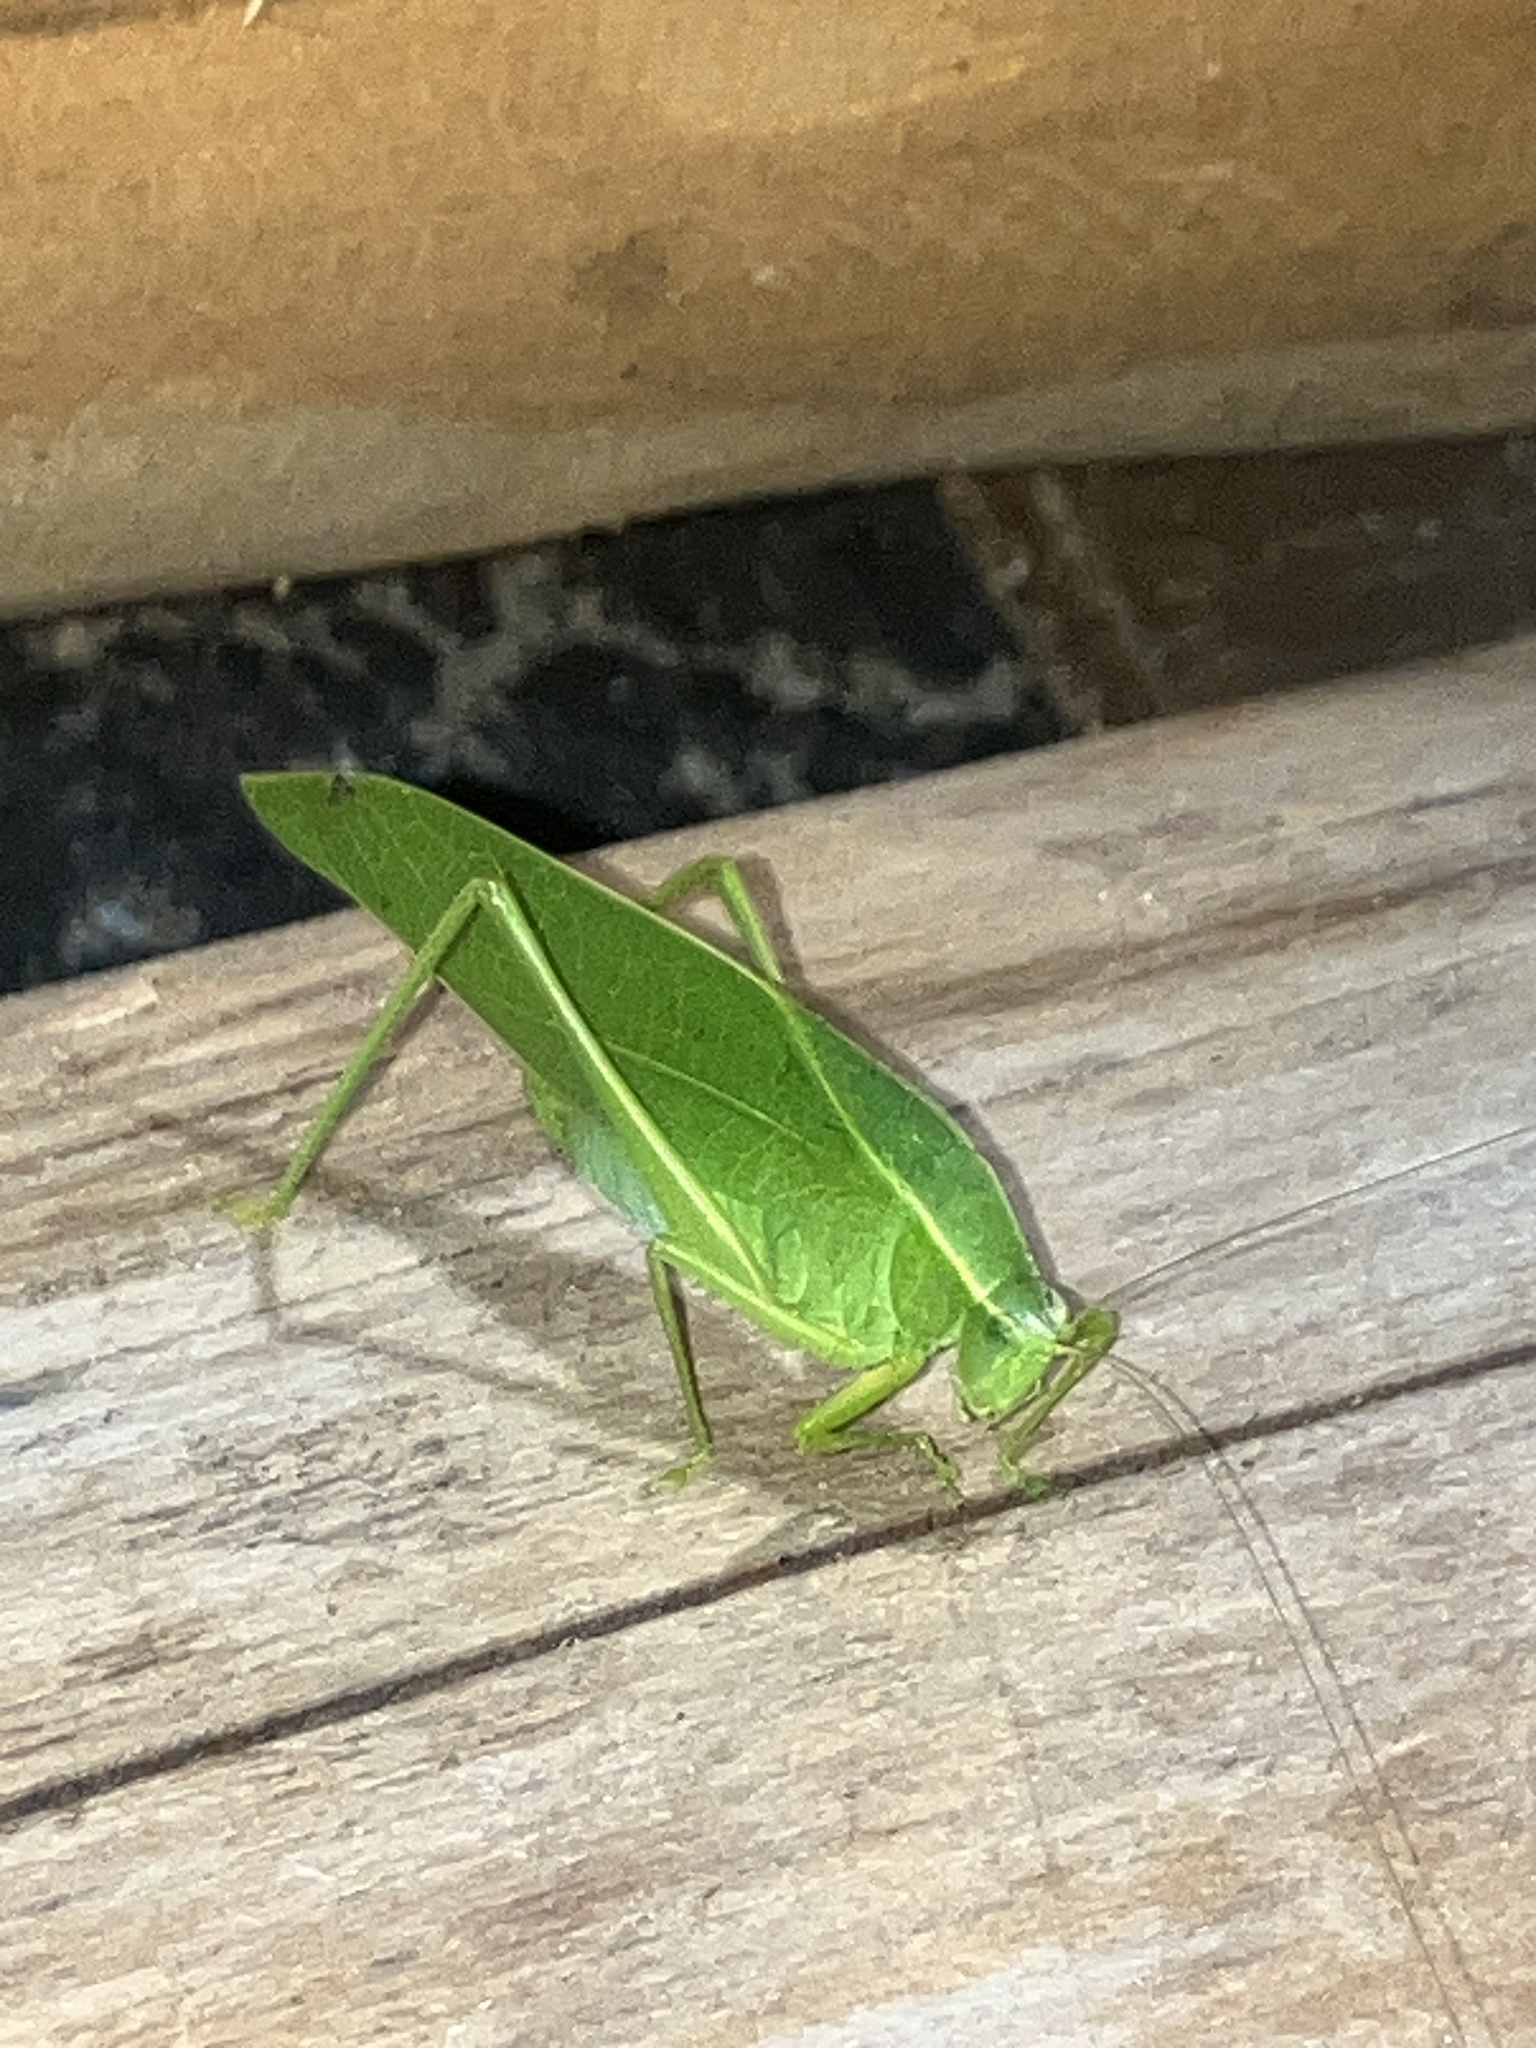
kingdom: Animalia
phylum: Arthropoda
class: Insecta
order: Orthoptera
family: Tettigoniidae
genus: Turpilia
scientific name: Turpilia rostrata
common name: Narrow-beaked katydid
